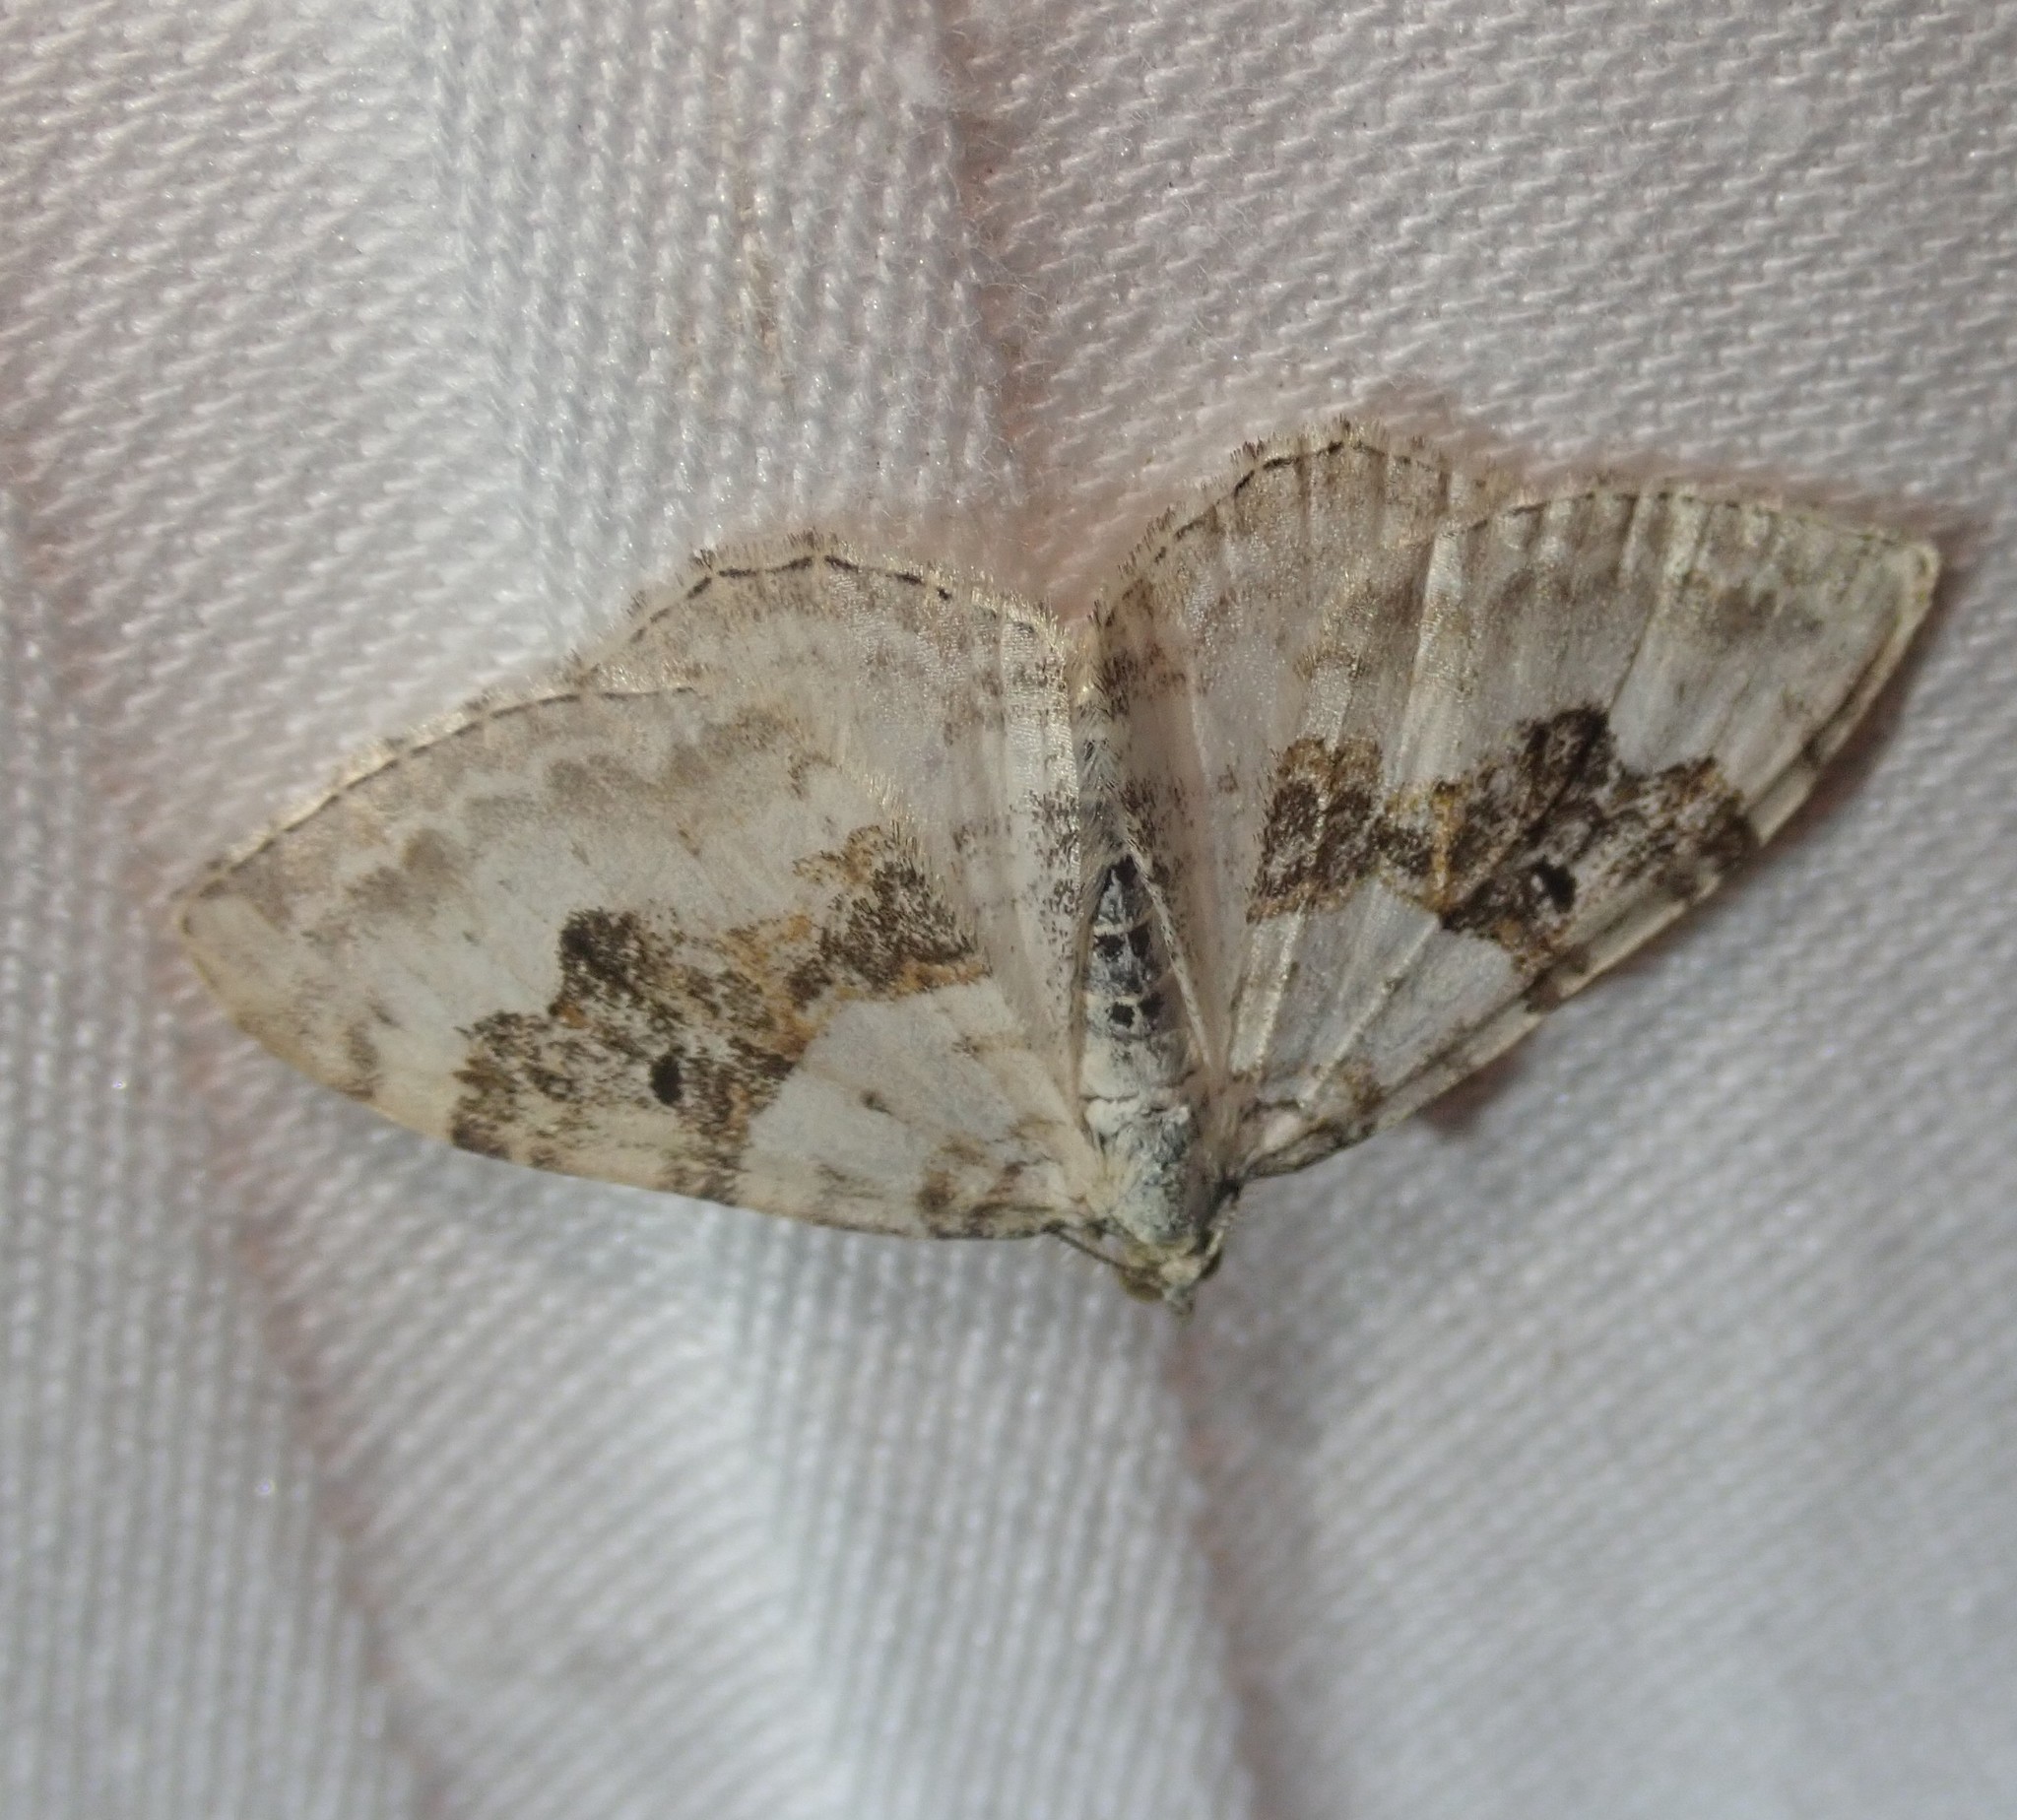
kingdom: Animalia
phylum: Arthropoda
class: Insecta
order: Lepidoptera
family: Geometridae
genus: Xanthorhoe
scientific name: Xanthorhoe montanata
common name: Silver-ground carpet
